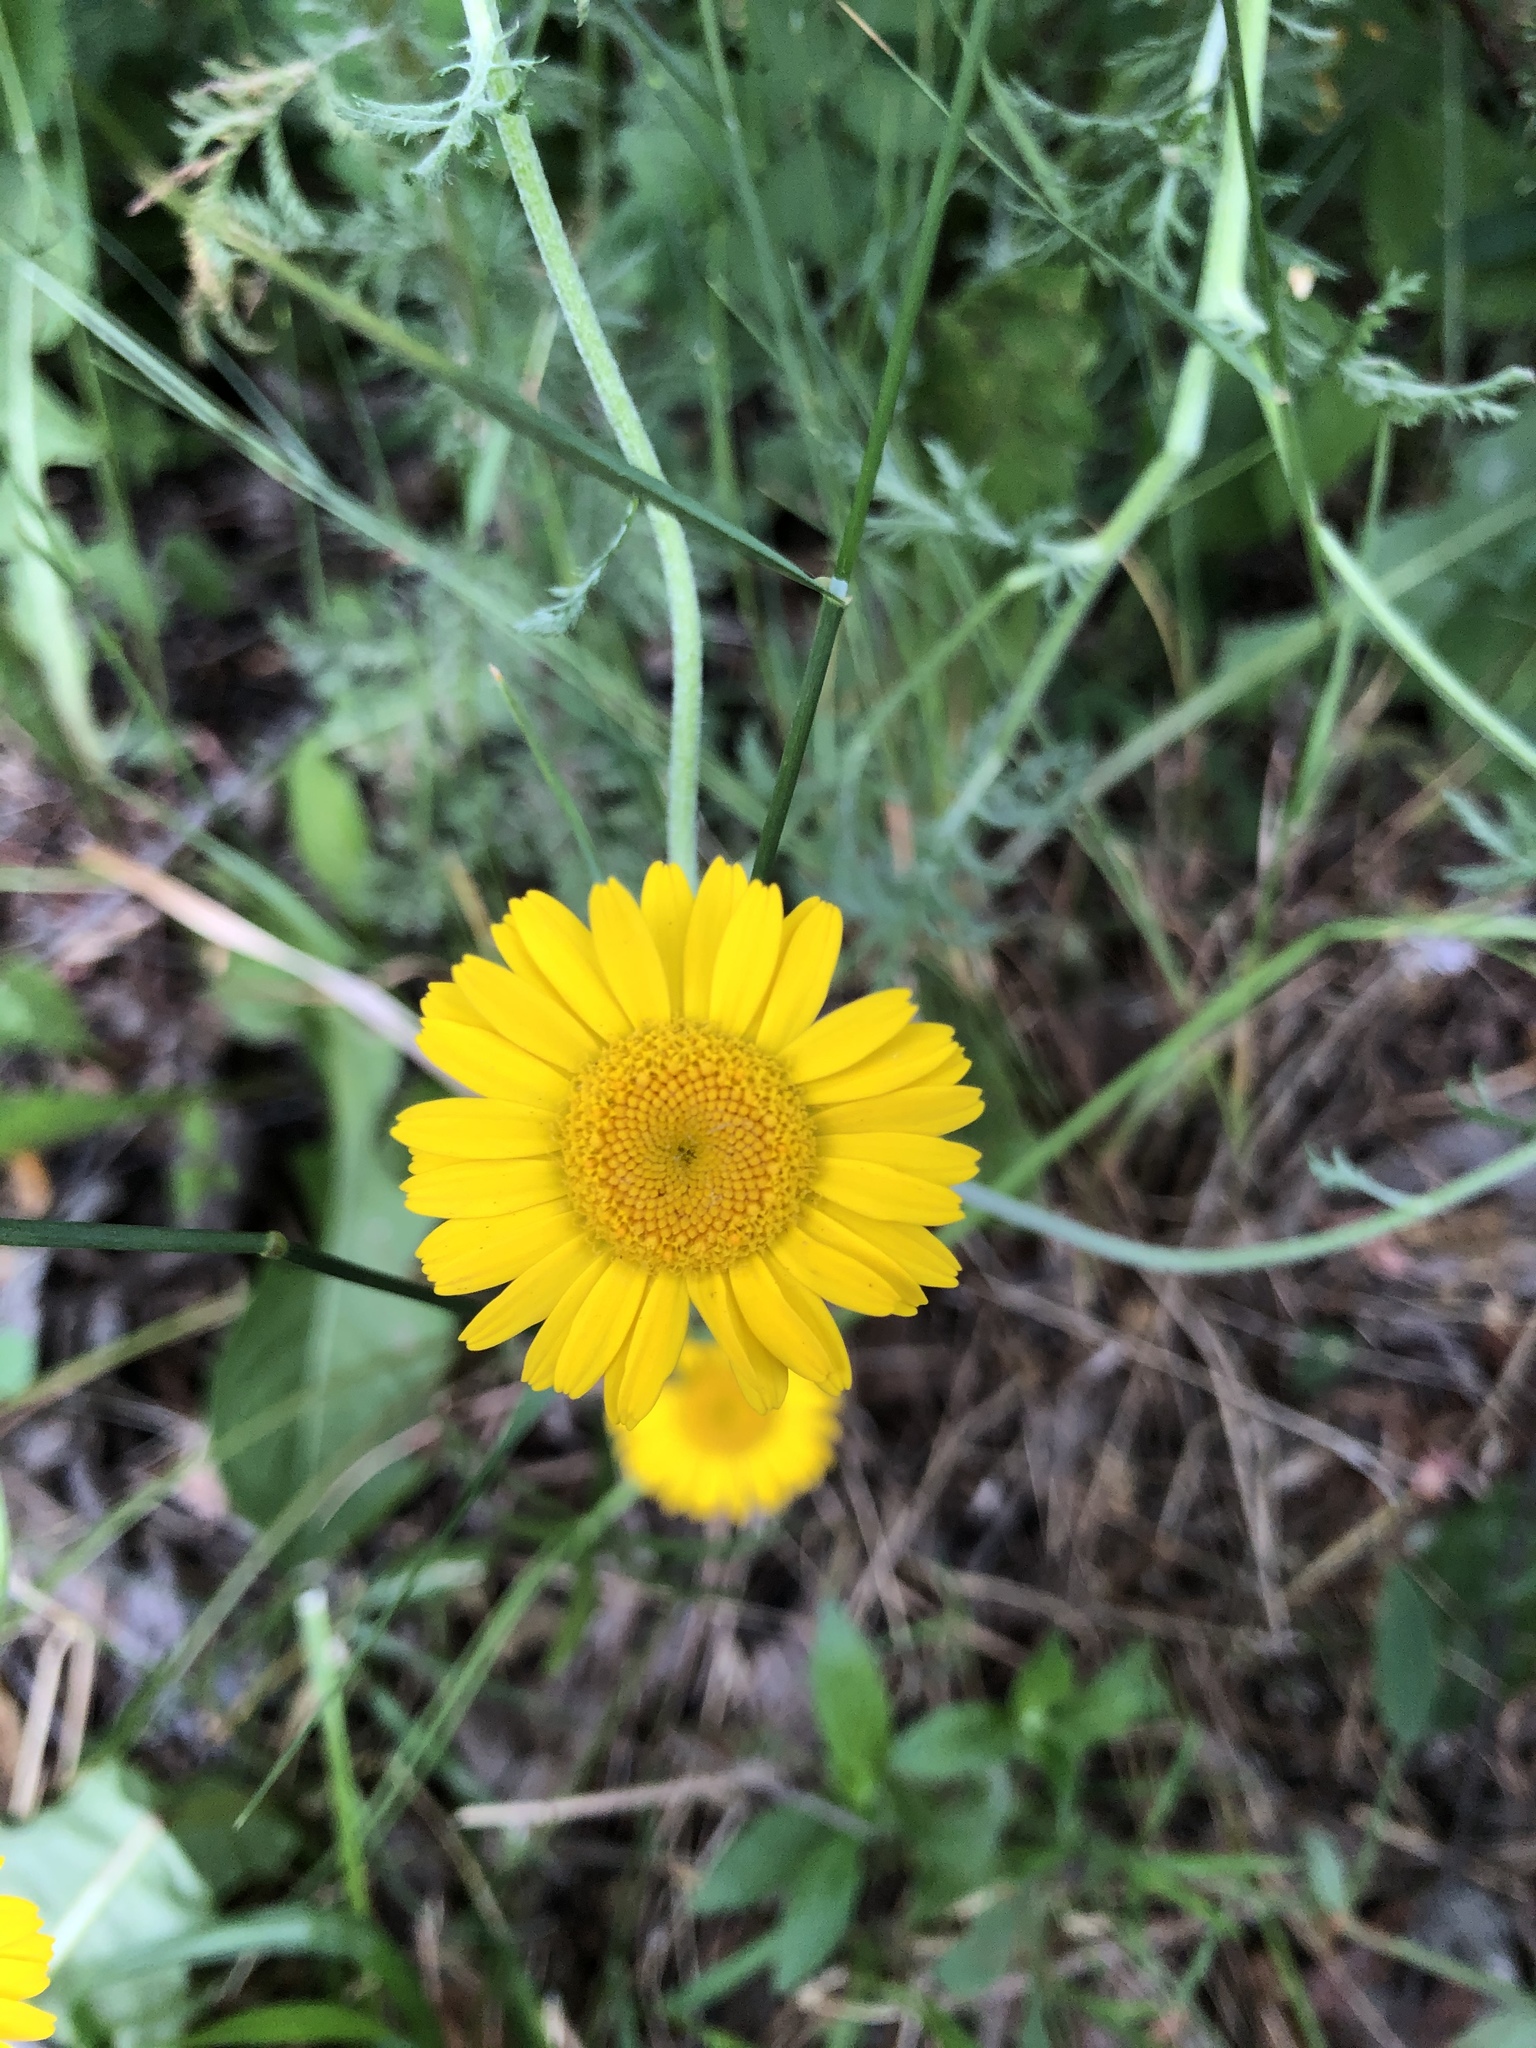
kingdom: Plantae
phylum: Tracheophyta
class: Magnoliopsida
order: Asterales
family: Asteraceae
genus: Cota
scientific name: Cota tinctoria
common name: Golden chamomile
